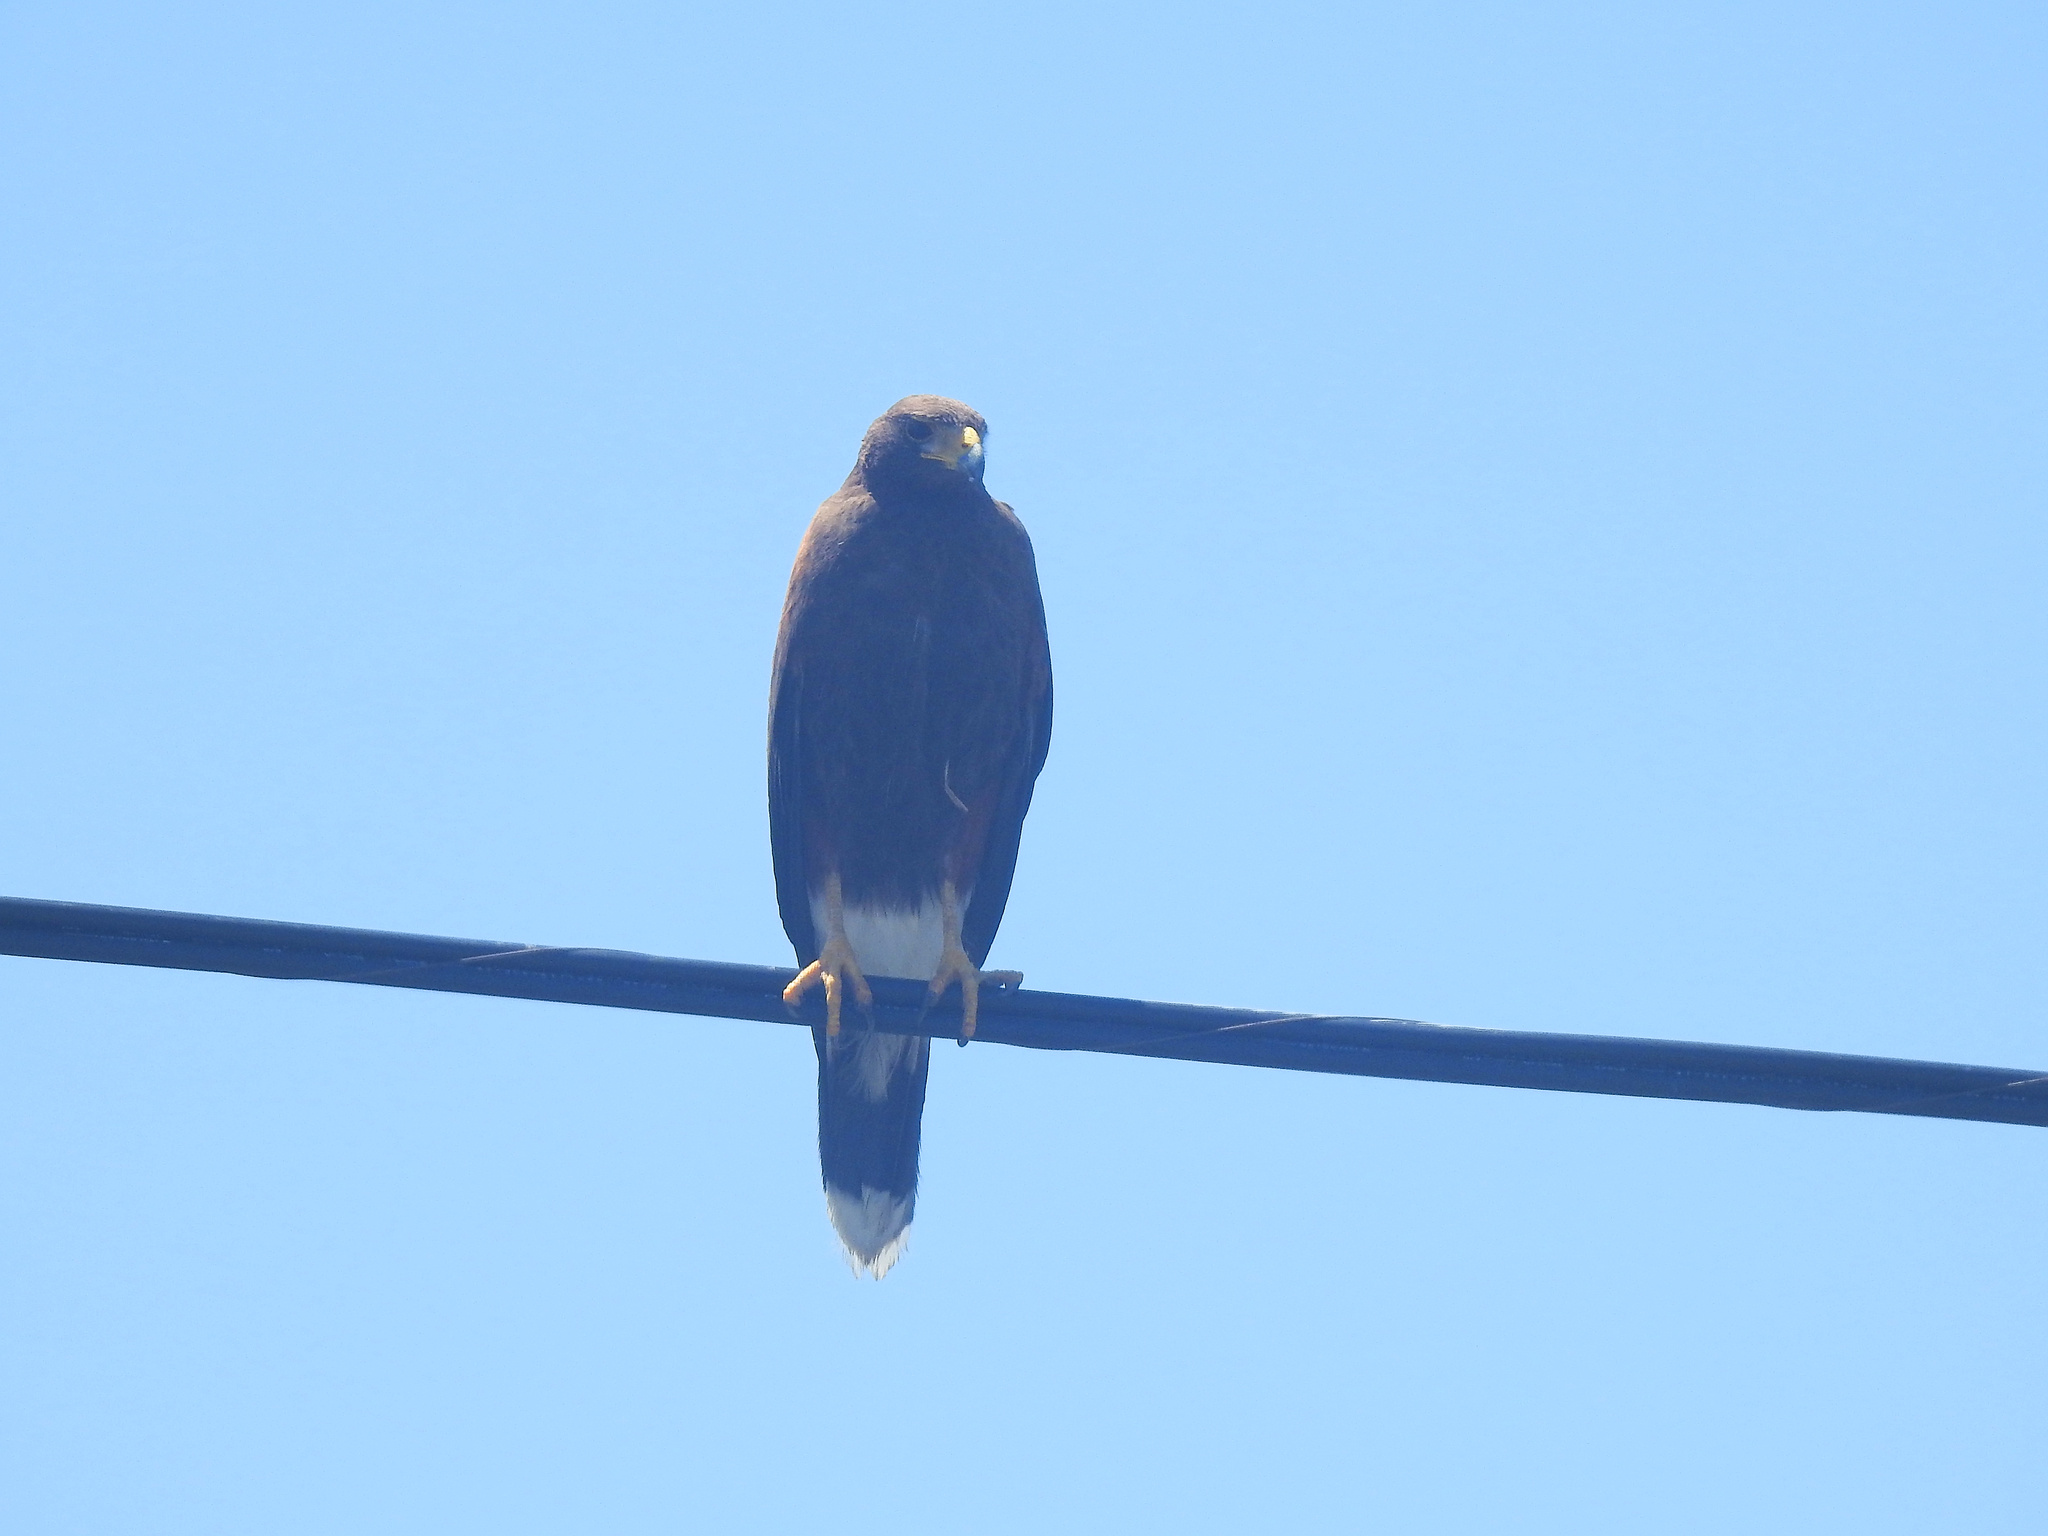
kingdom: Animalia
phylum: Chordata
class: Aves
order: Accipitriformes
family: Accipitridae
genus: Parabuteo
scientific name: Parabuteo unicinctus
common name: Harris's hawk
